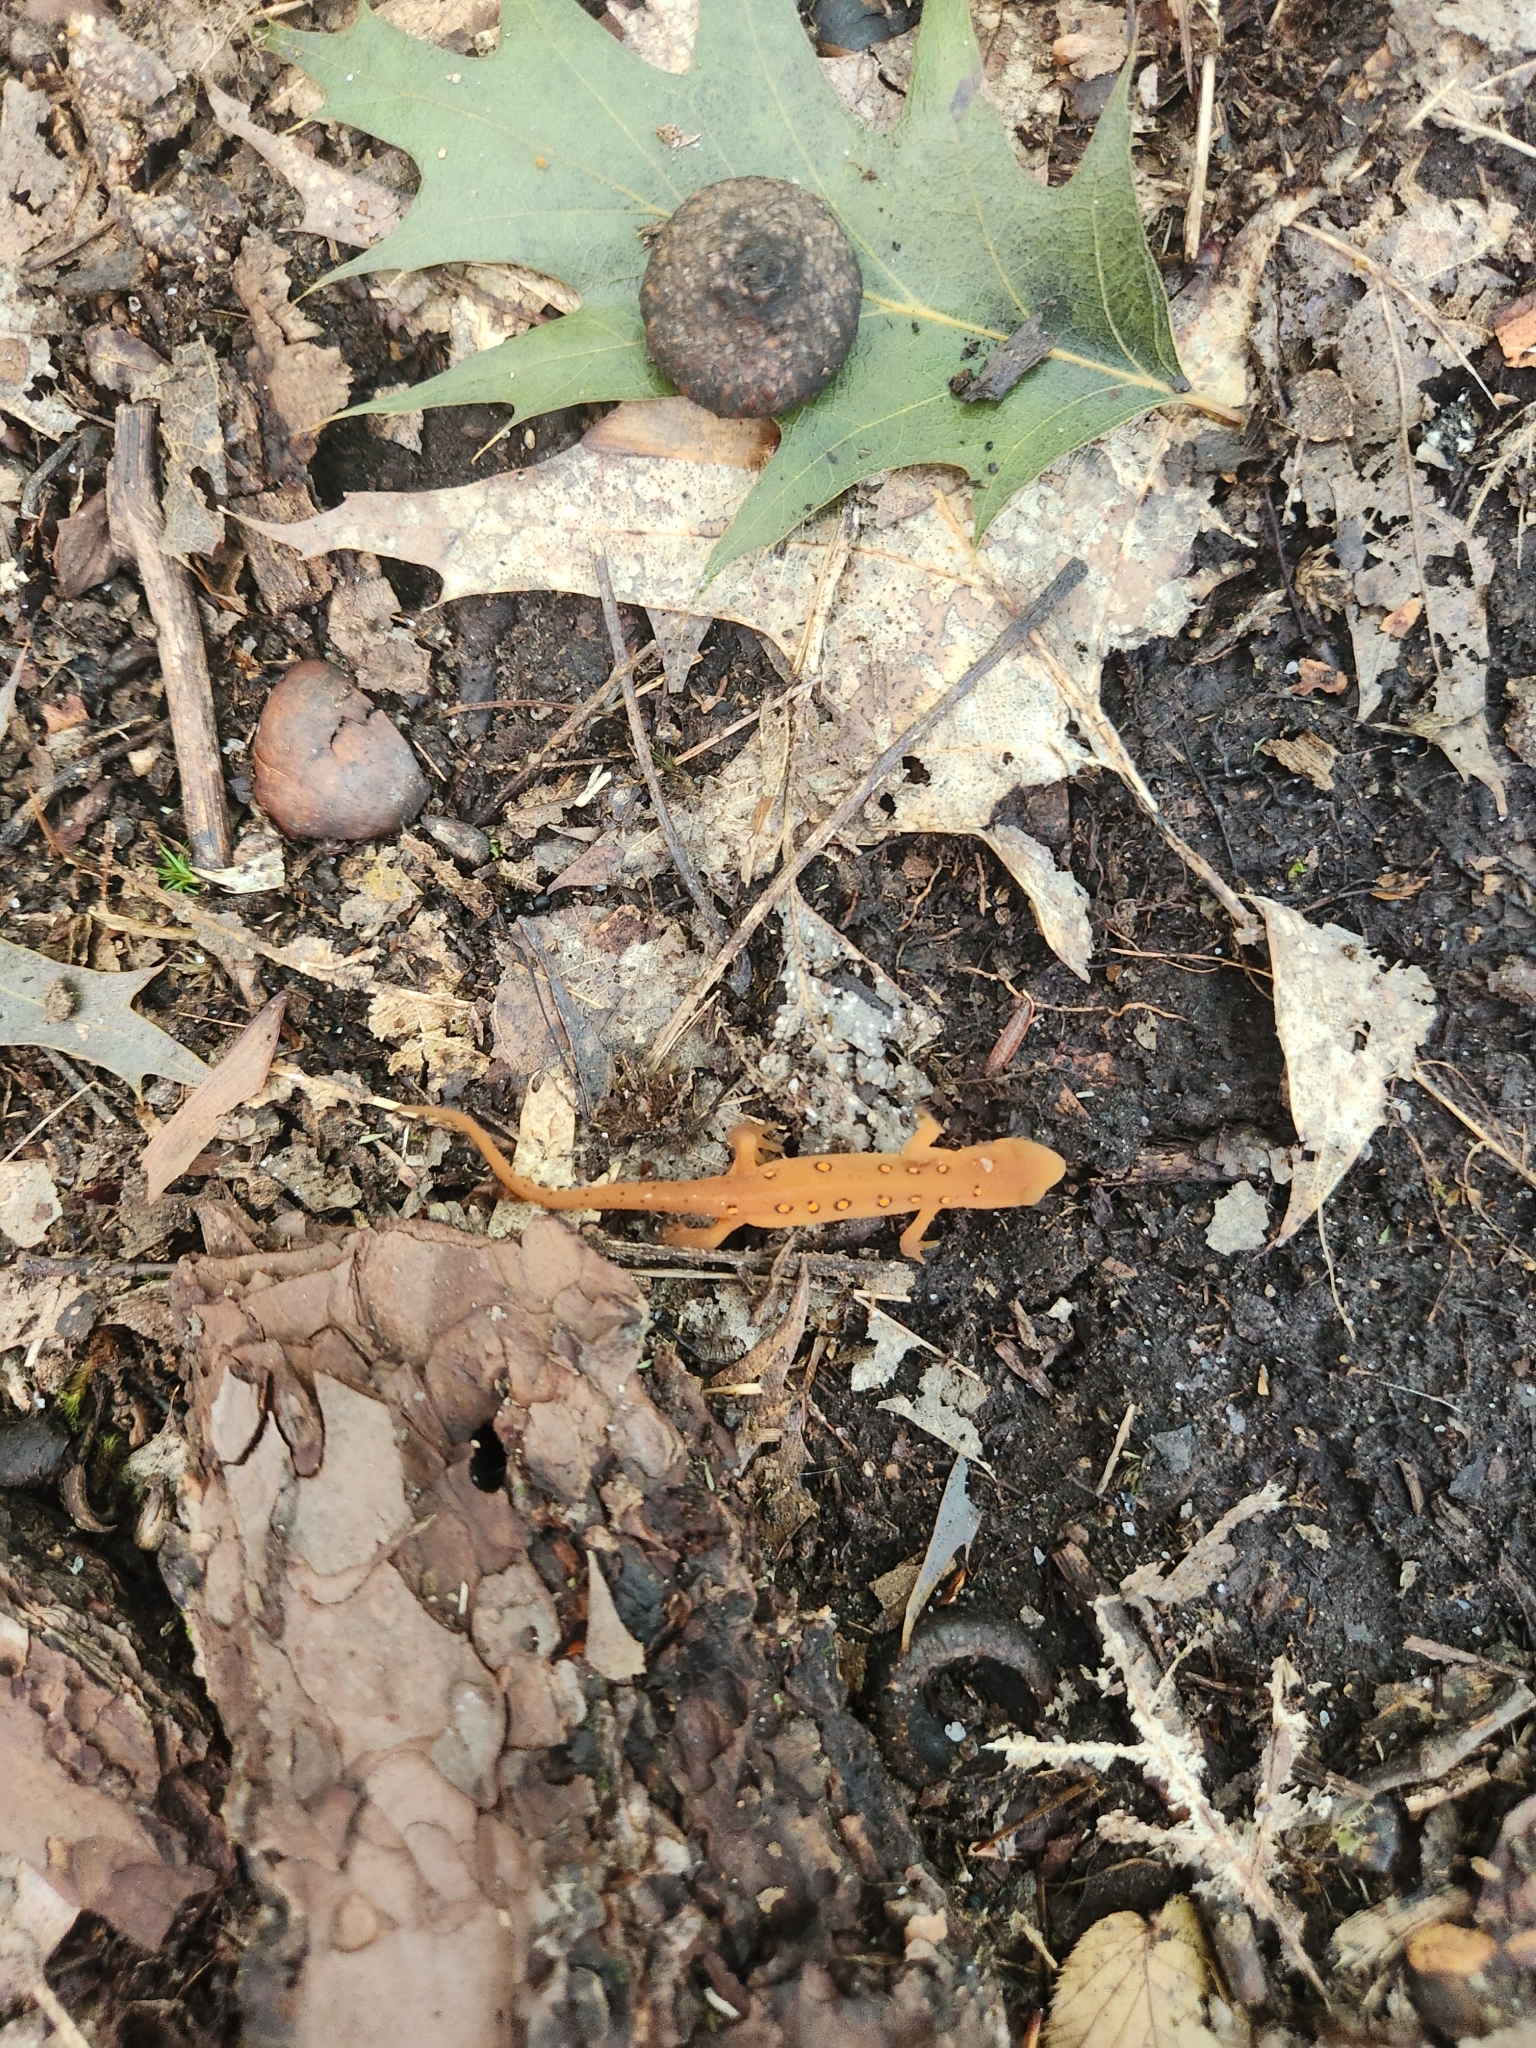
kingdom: Animalia
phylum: Chordata
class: Amphibia
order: Caudata
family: Salamandridae
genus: Notophthalmus
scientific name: Notophthalmus viridescens
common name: Eastern newt
